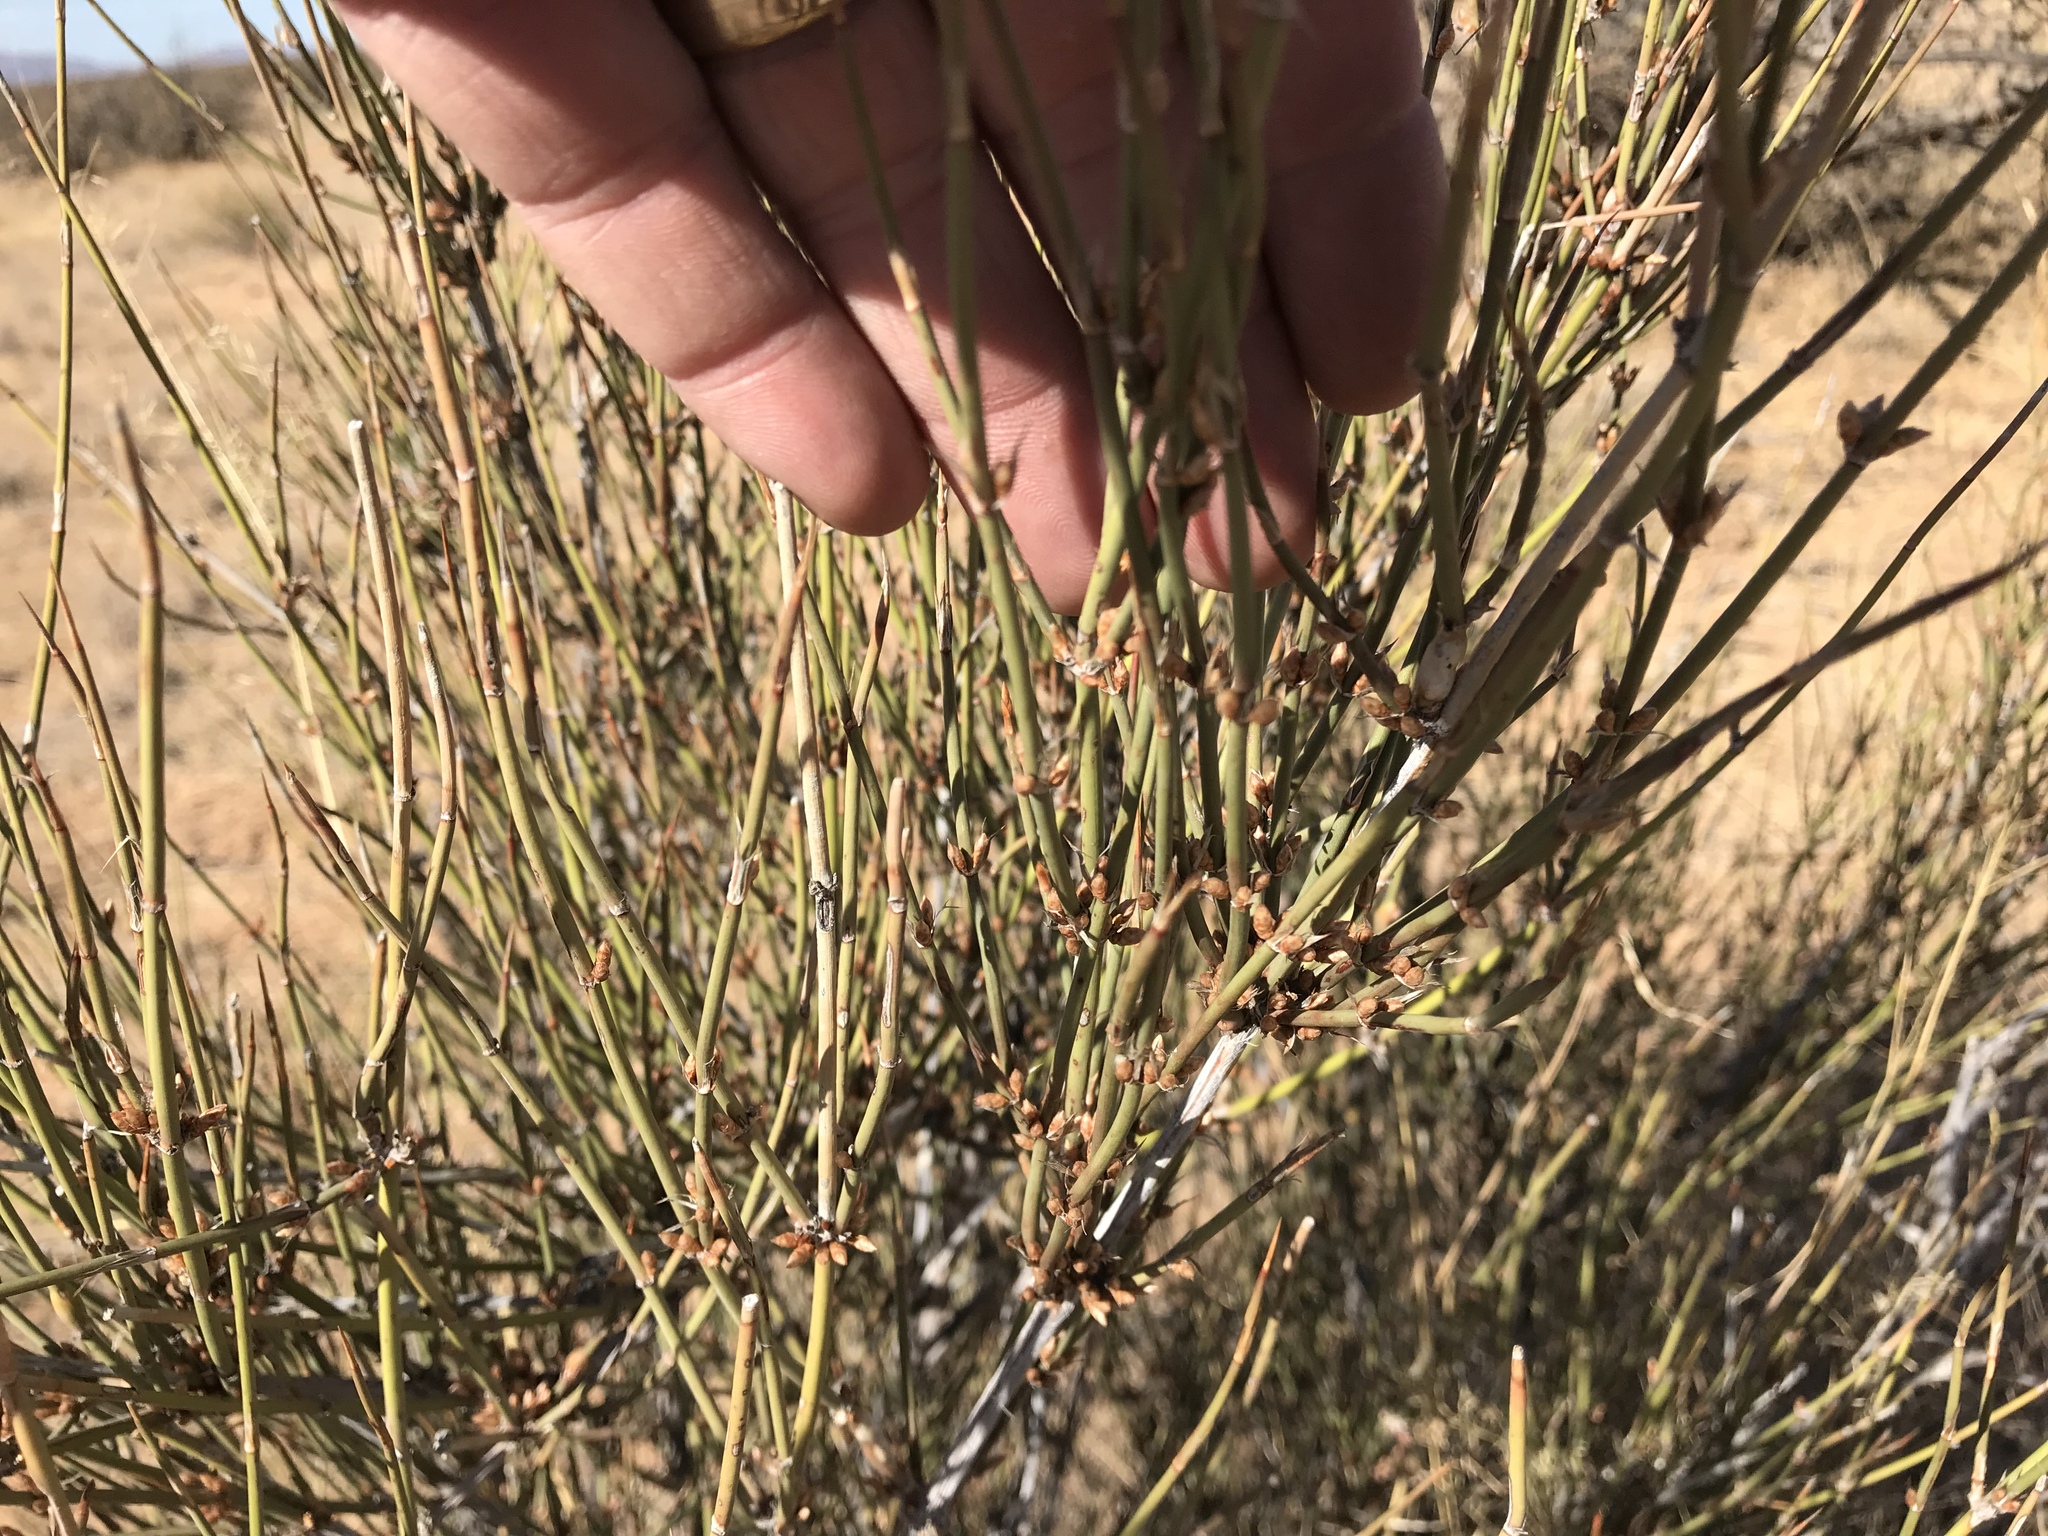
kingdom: Plantae
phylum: Tracheophyta
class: Gnetopsida
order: Ephedrales
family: Ephedraceae
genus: Ephedra
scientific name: Ephedra trifurca
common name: Mexican-tea
